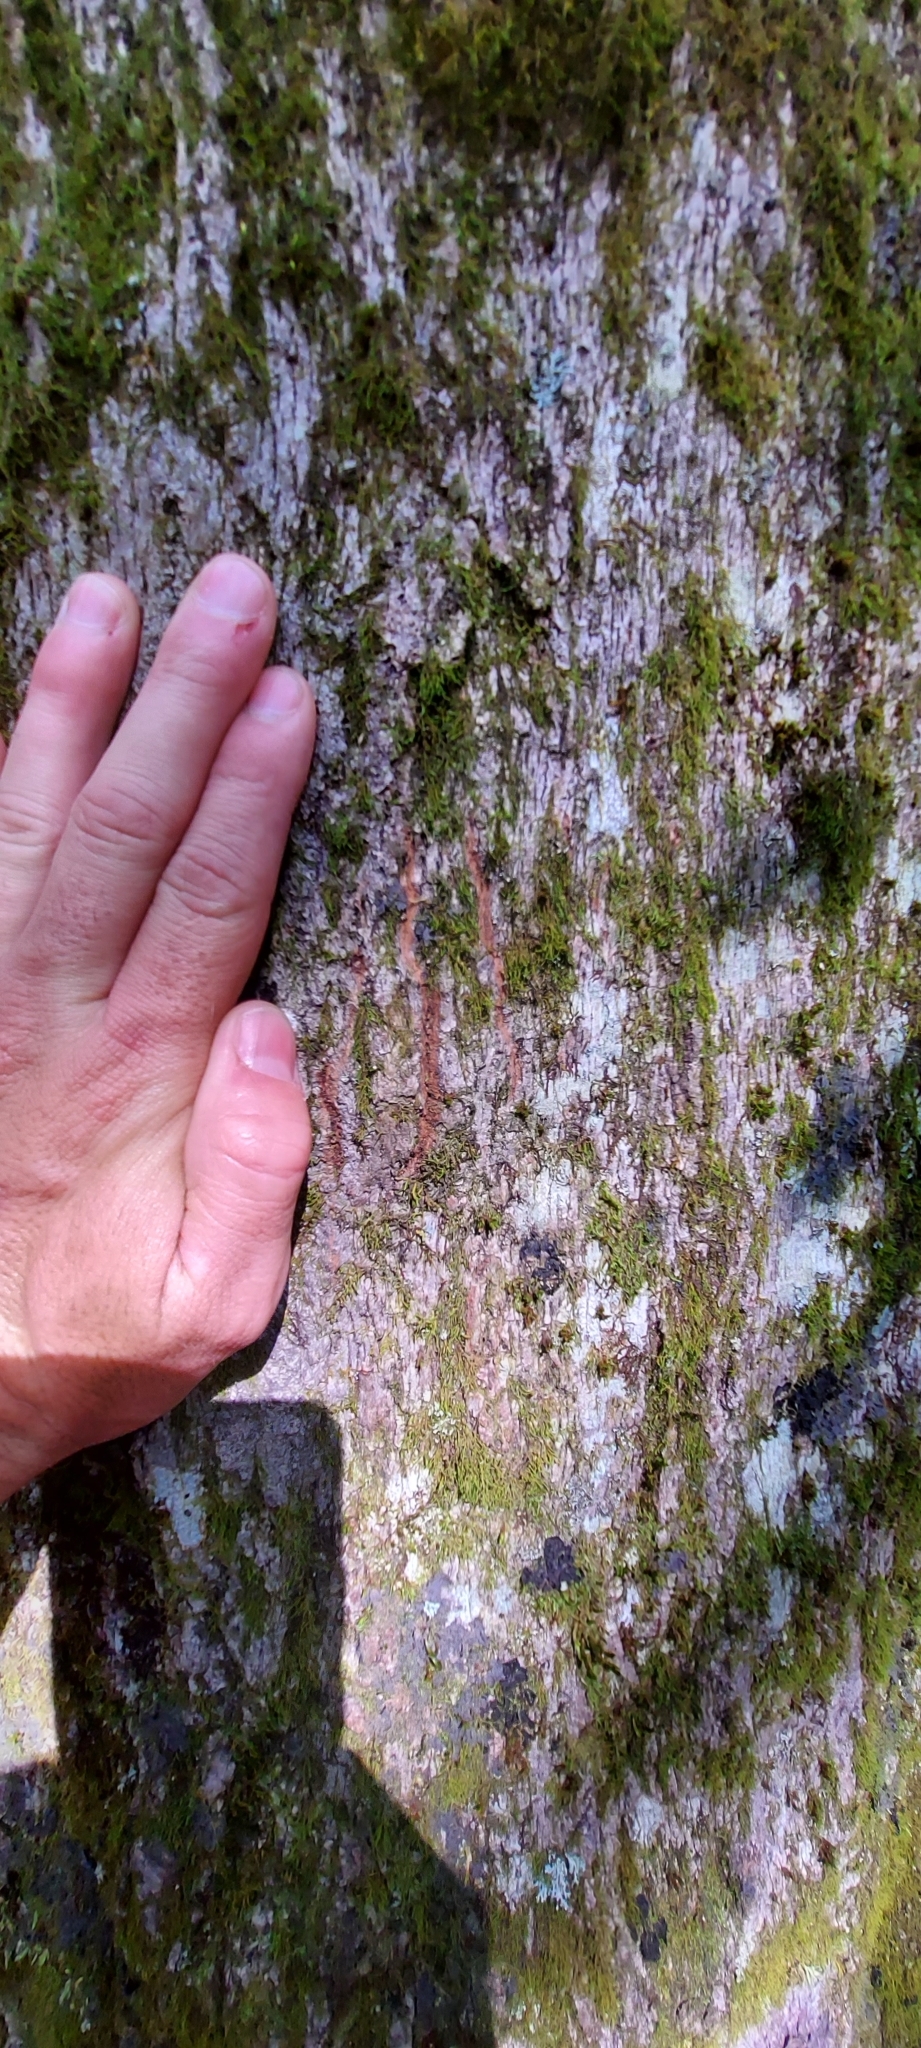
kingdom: Animalia
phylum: Chordata
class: Mammalia
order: Carnivora
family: Ursidae
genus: Ursus
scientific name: Ursus americanus
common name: American black bear
